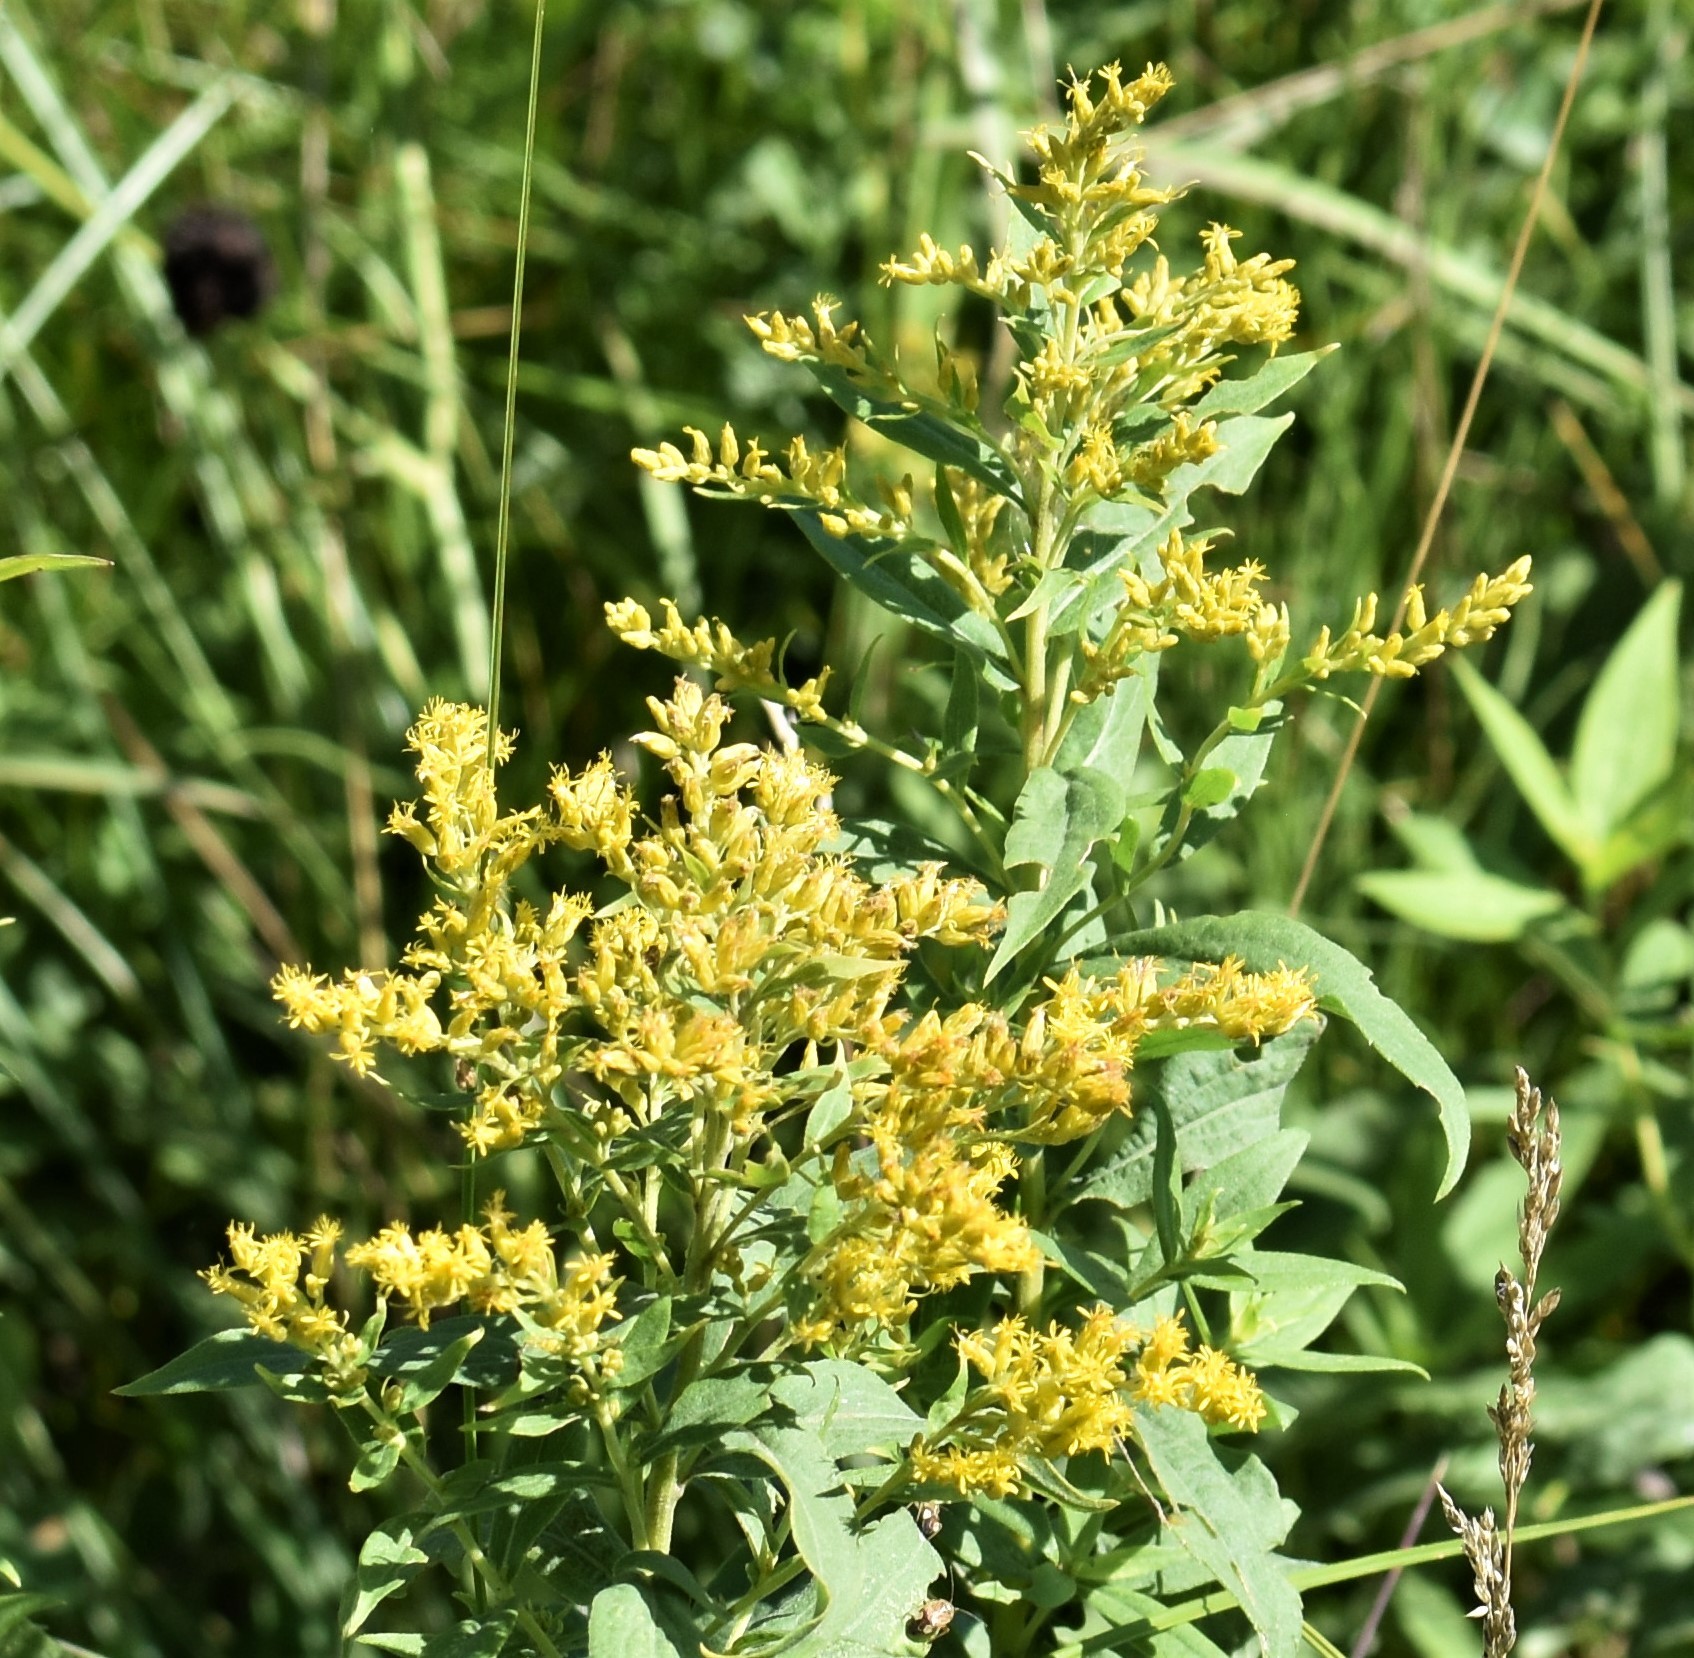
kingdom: Plantae
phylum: Tracheophyta
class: Magnoliopsida
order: Asterales
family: Asteraceae
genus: Solidago
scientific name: Solidago canadensis
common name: Canada goldenrod
